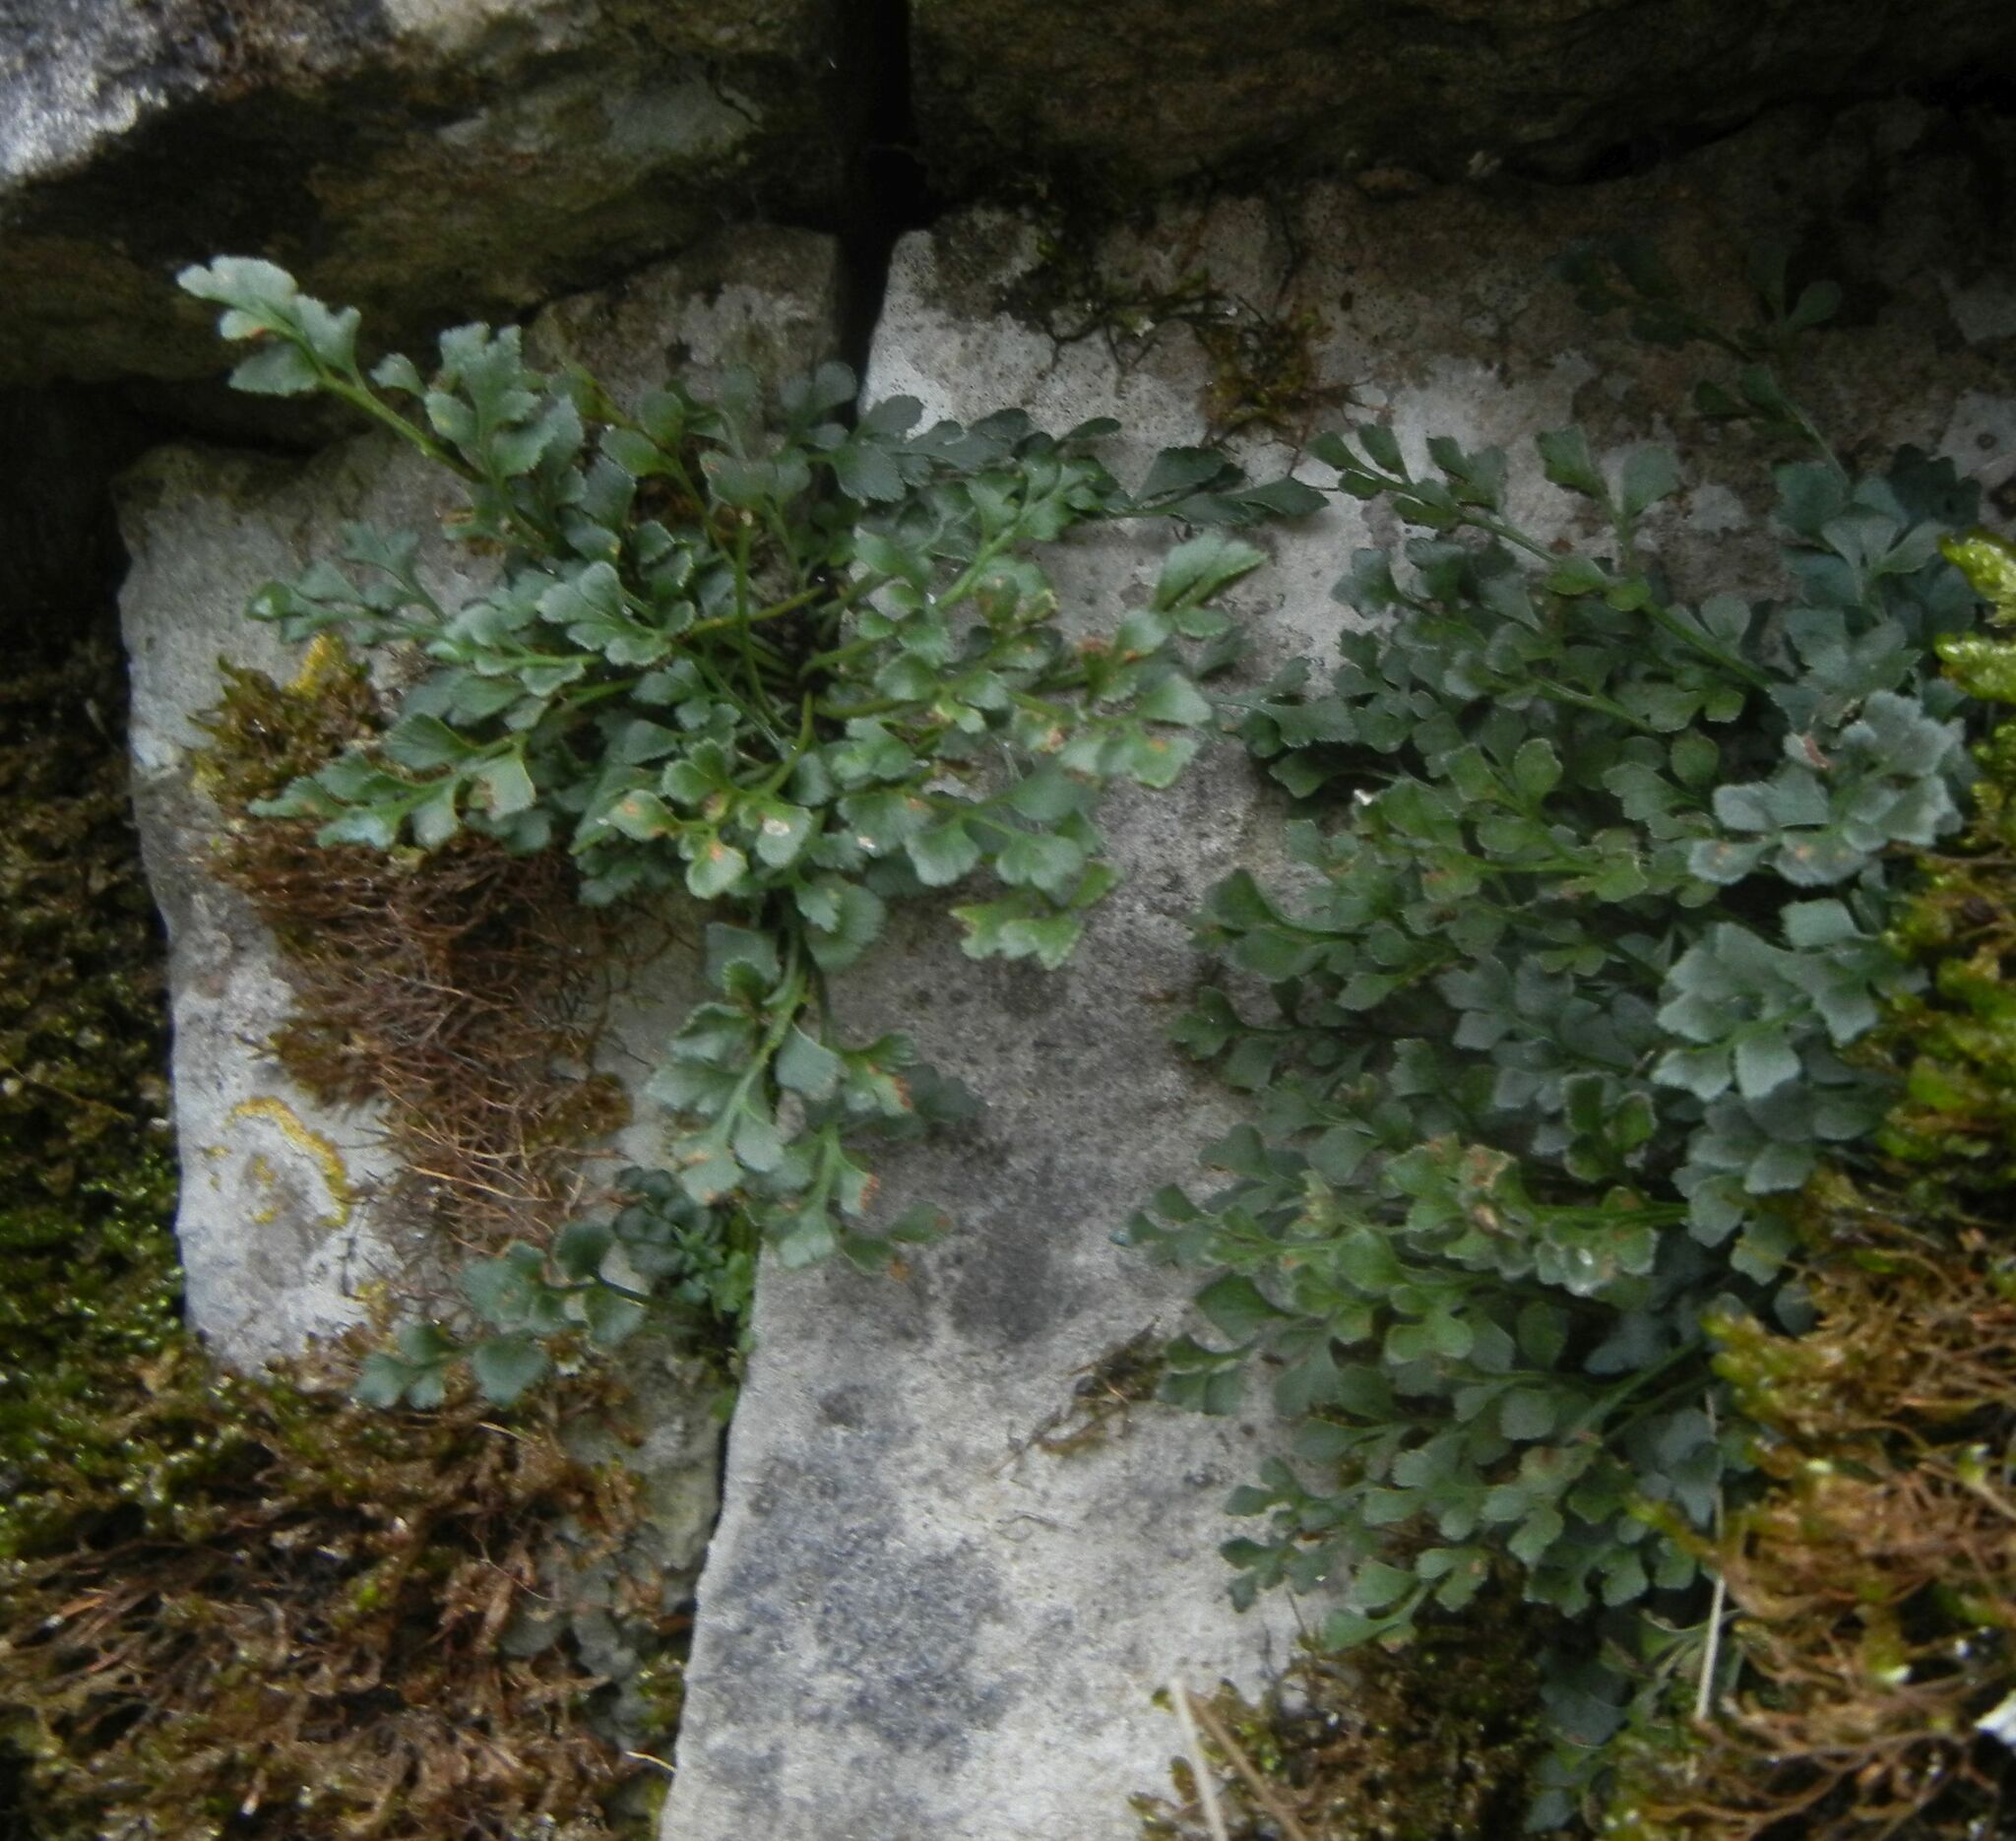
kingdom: Plantae
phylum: Tracheophyta
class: Polypodiopsida
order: Polypodiales
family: Aspleniaceae
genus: Asplenium
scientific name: Asplenium ruta-muraria
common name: Wall-rue
